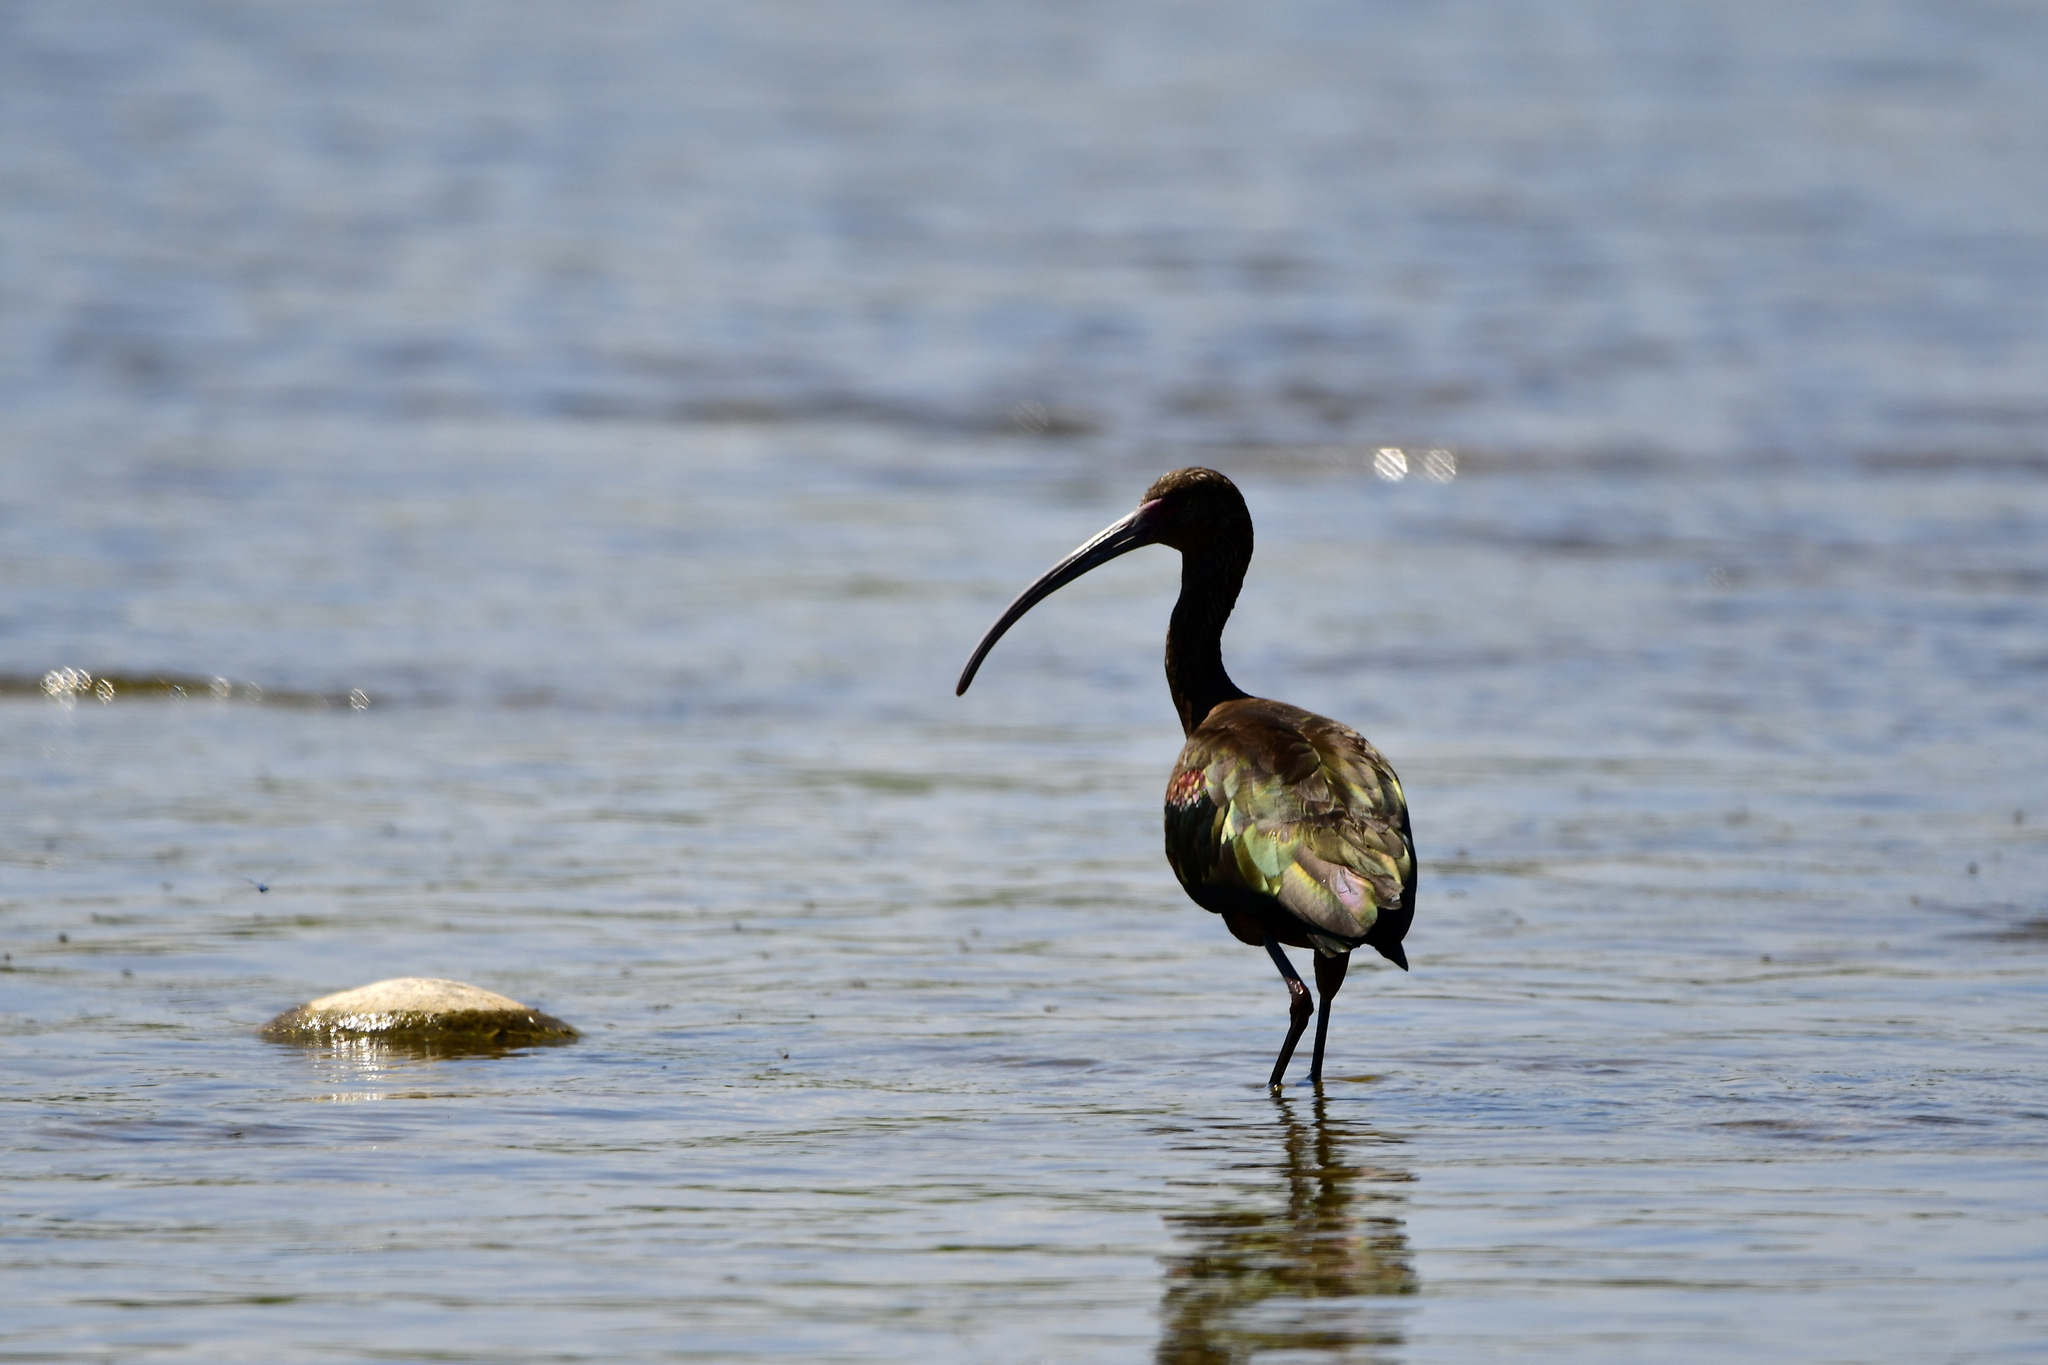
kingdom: Animalia
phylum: Chordata
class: Aves
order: Pelecaniformes
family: Threskiornithidae
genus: Plegadis
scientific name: Plegadis chihi
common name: White-faced ibis
